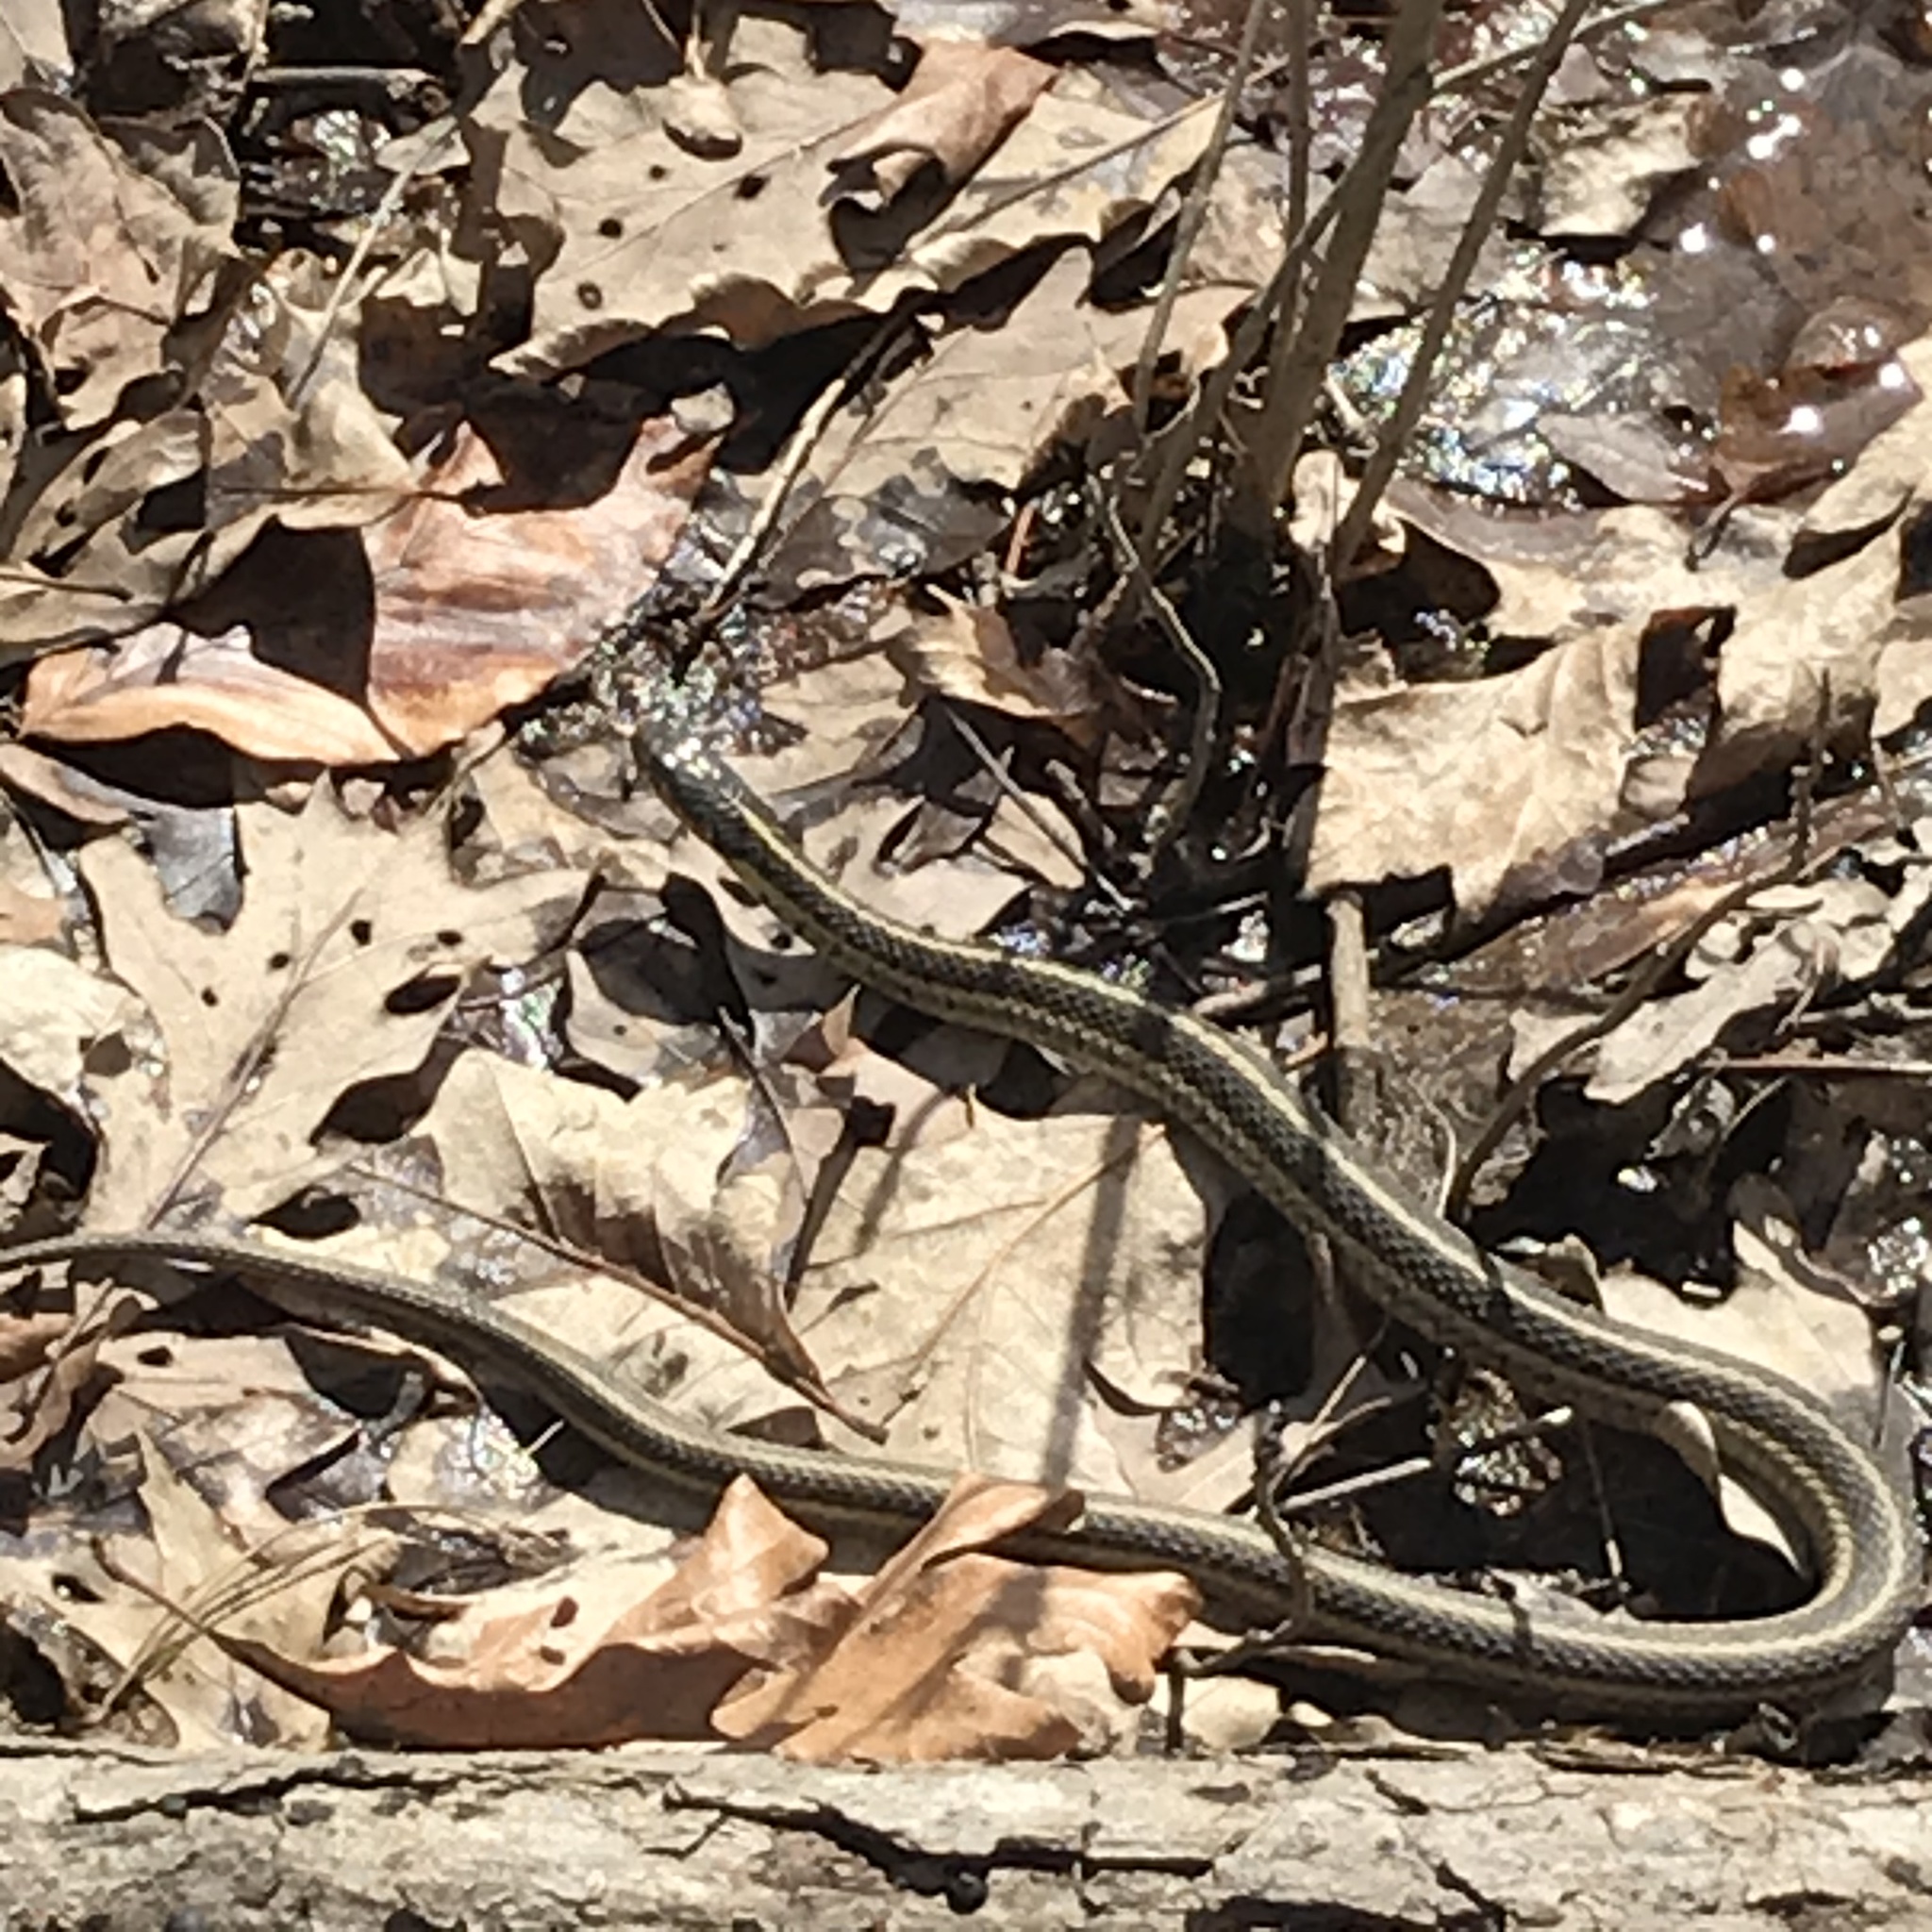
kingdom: Animalia
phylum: Chordata
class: Squamata
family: Colubridae
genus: Thamnophis
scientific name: Thamnophis sirtalis
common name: Common garter snake
